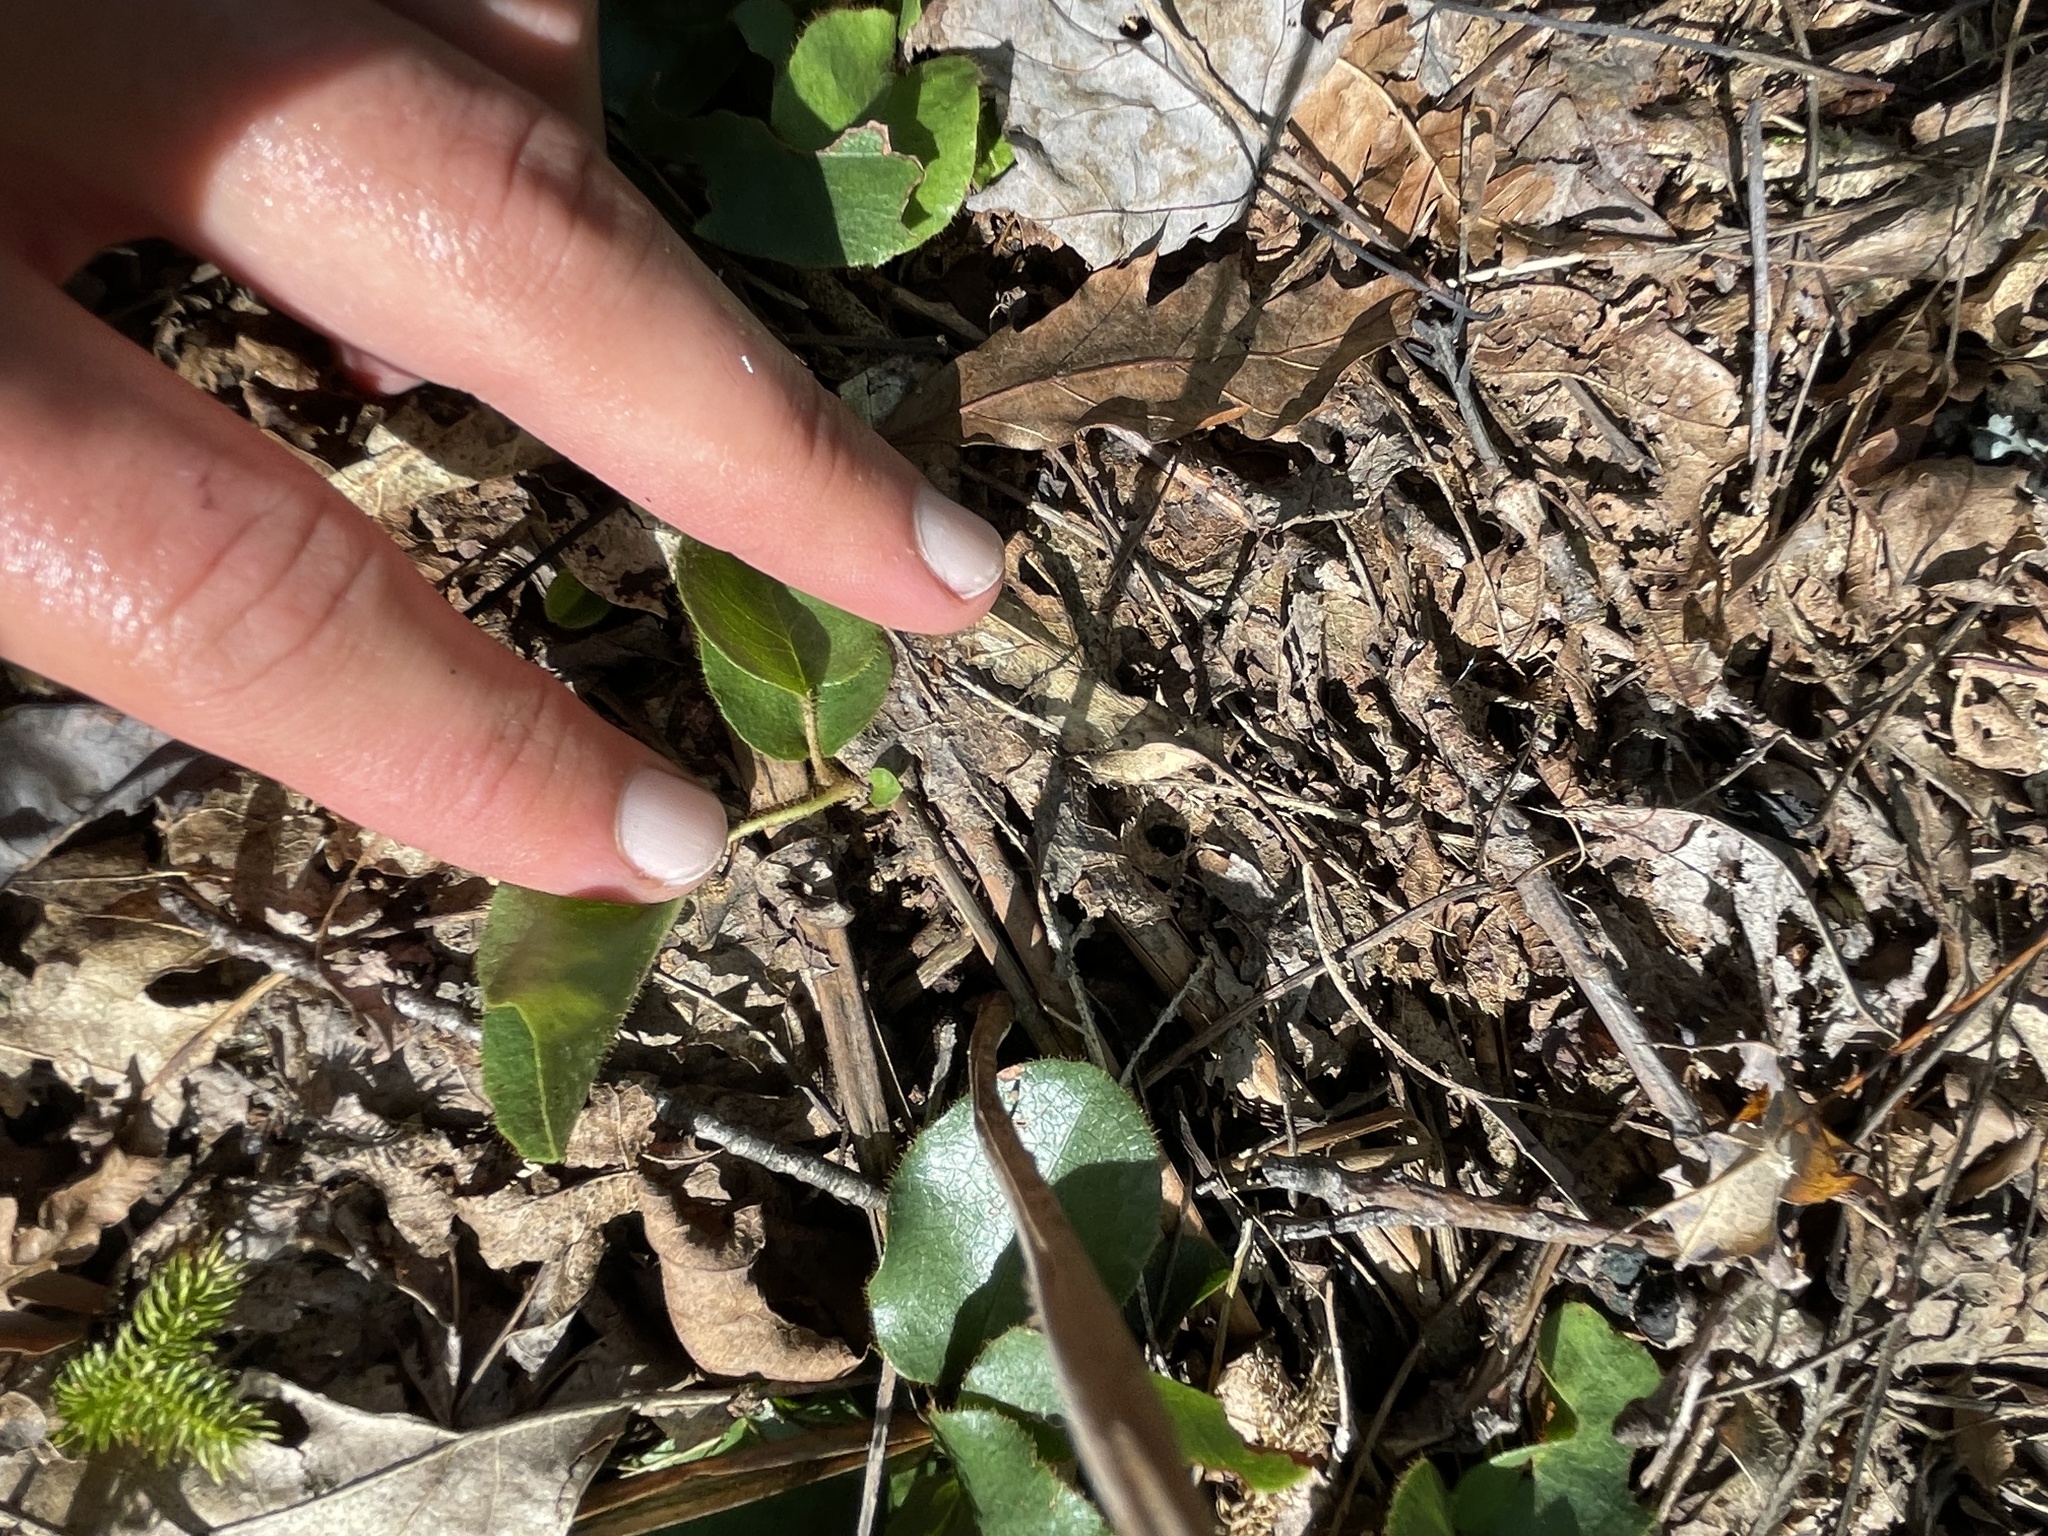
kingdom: Plantae
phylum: Tracheophyta
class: Magnoliopsida
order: Ericales
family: Ericaceae
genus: Epigaea
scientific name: Epigaea repens
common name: Gravelroot
